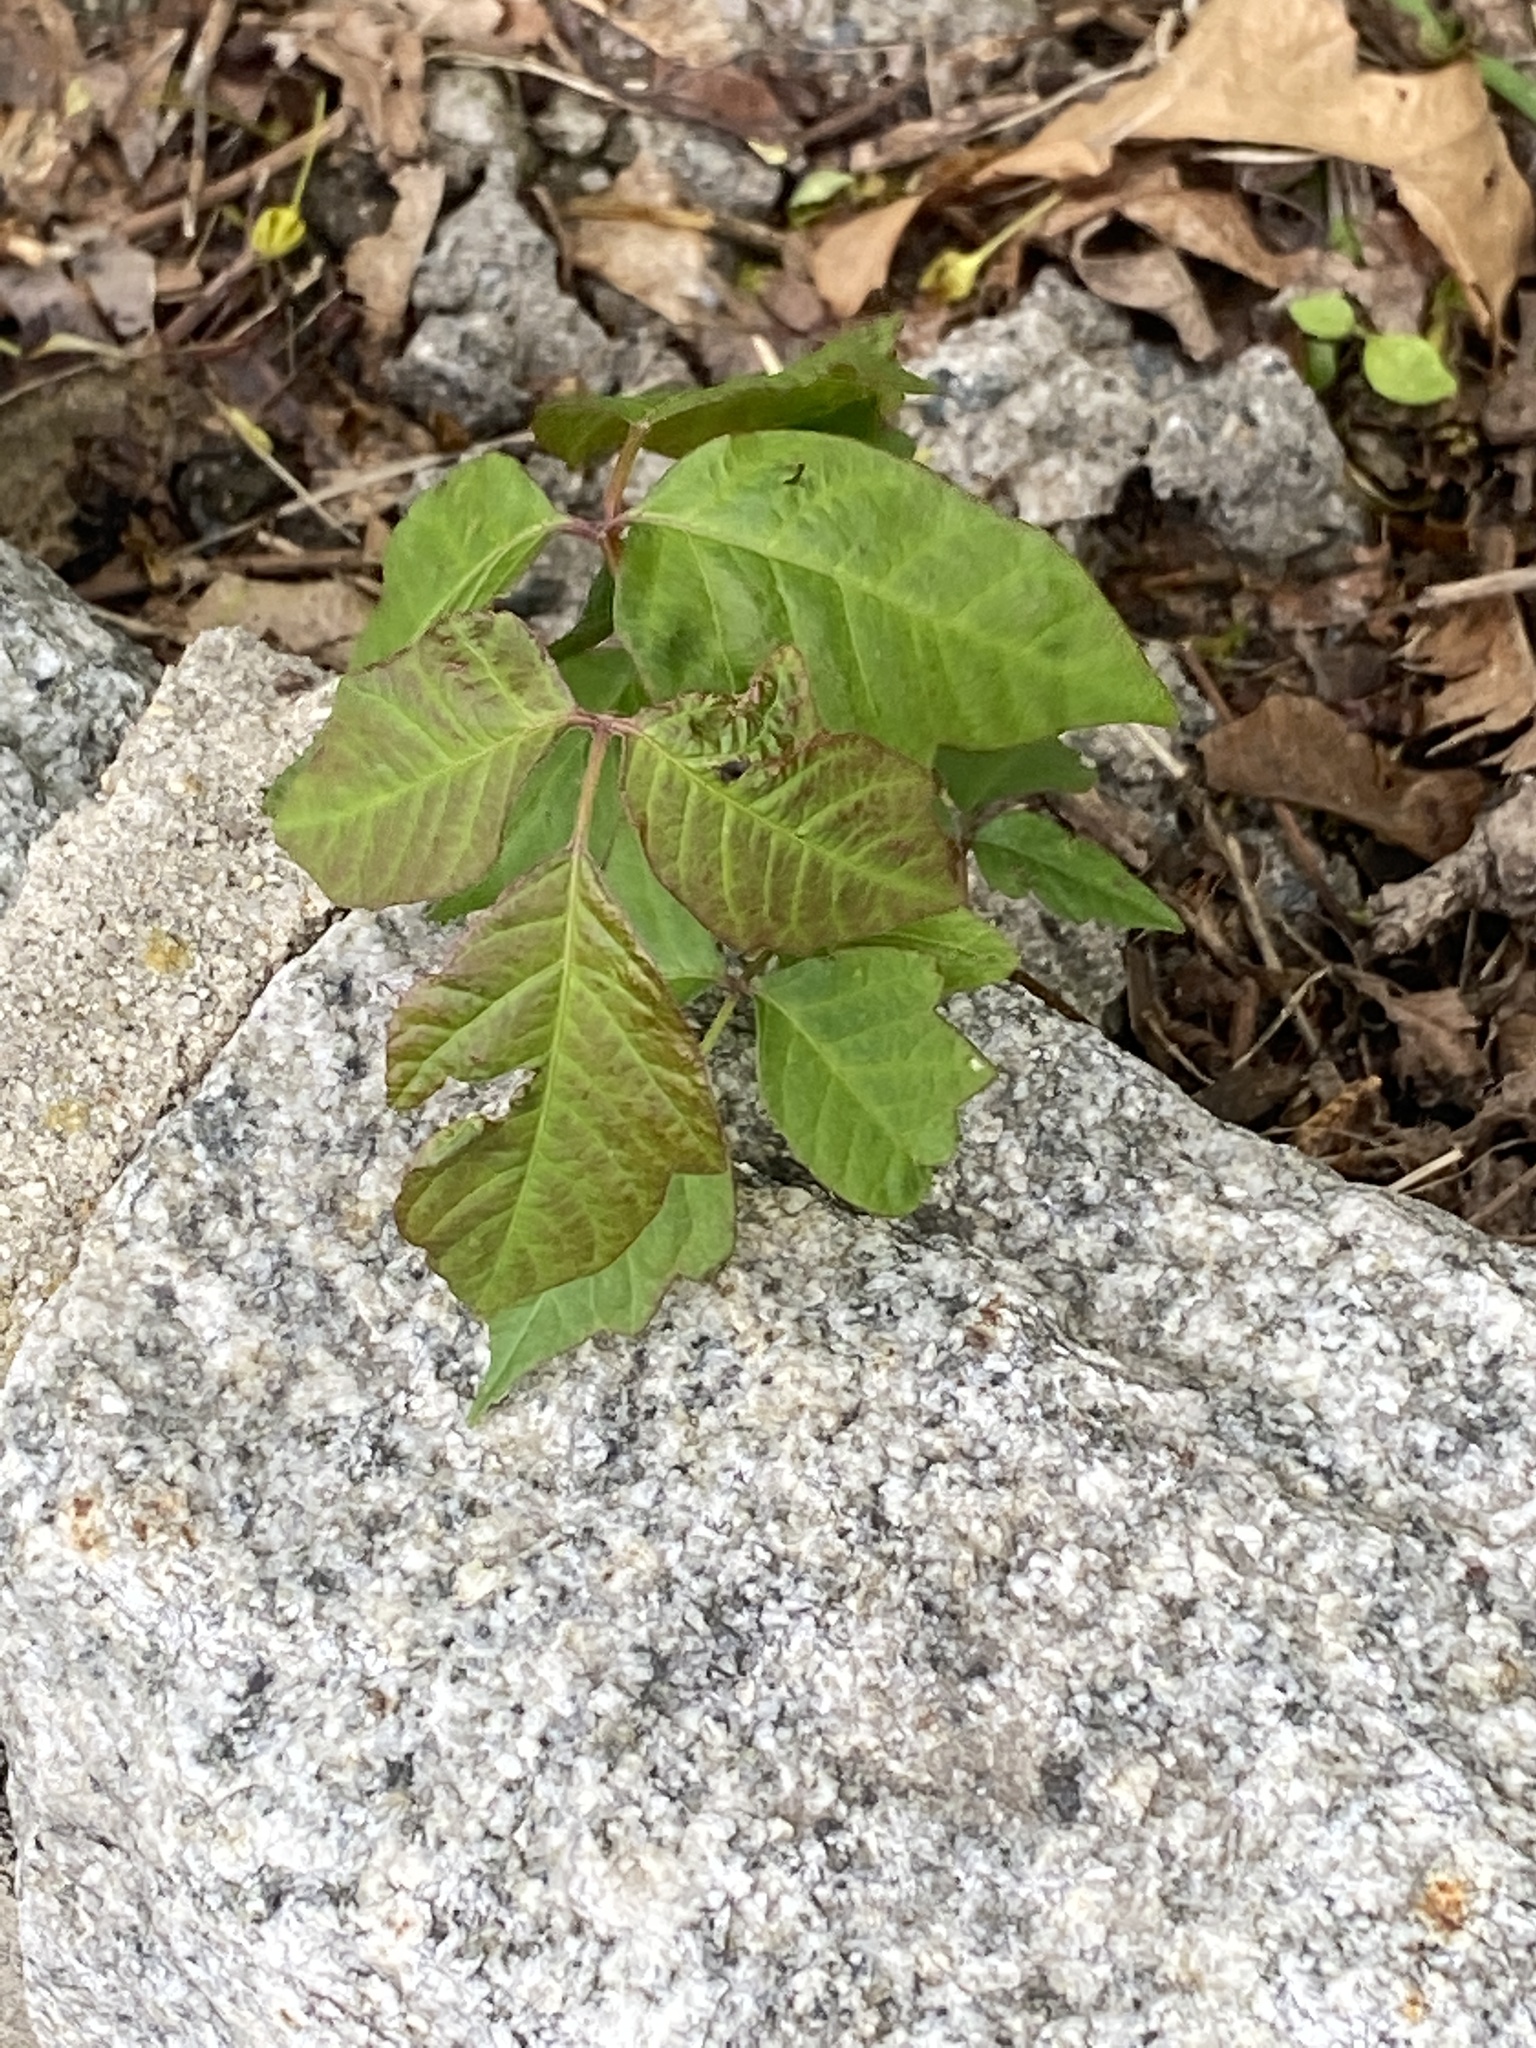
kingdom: Plantae
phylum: Tracheophyta
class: Magnoliopsida
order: Sapindales
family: Anacardiaceae
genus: Toxicodendron
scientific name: Toxicodendron radicans
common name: Poison ivy
